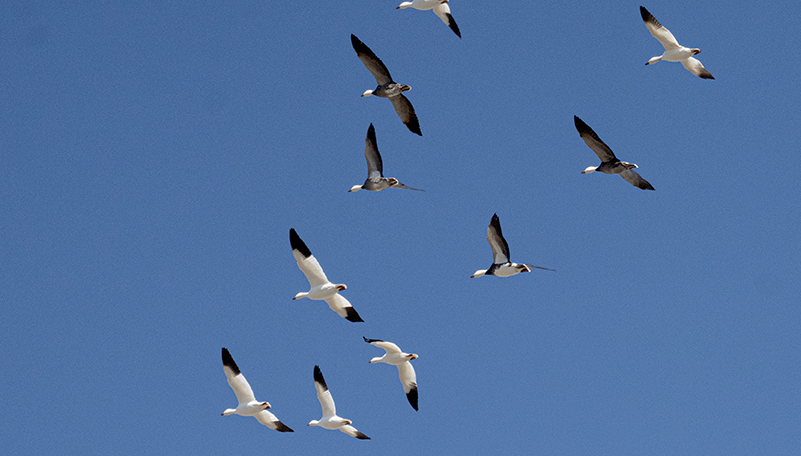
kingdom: Animalia
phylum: Chordata
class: Aves
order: Anseriformes
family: Anatidae
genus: Anser
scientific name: Anser caerulescens
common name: Snow goose
